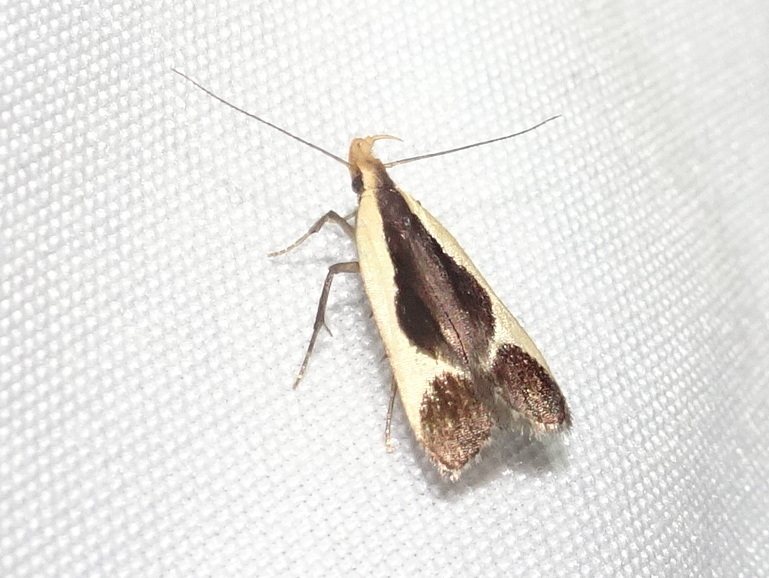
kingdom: Animalia
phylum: Arthropoda
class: Insecta
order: Lepidoptera
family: Gelechiidae
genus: Dichomeris
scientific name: Dichomeris flavocostella
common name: Cream-edged dichomeris moth
